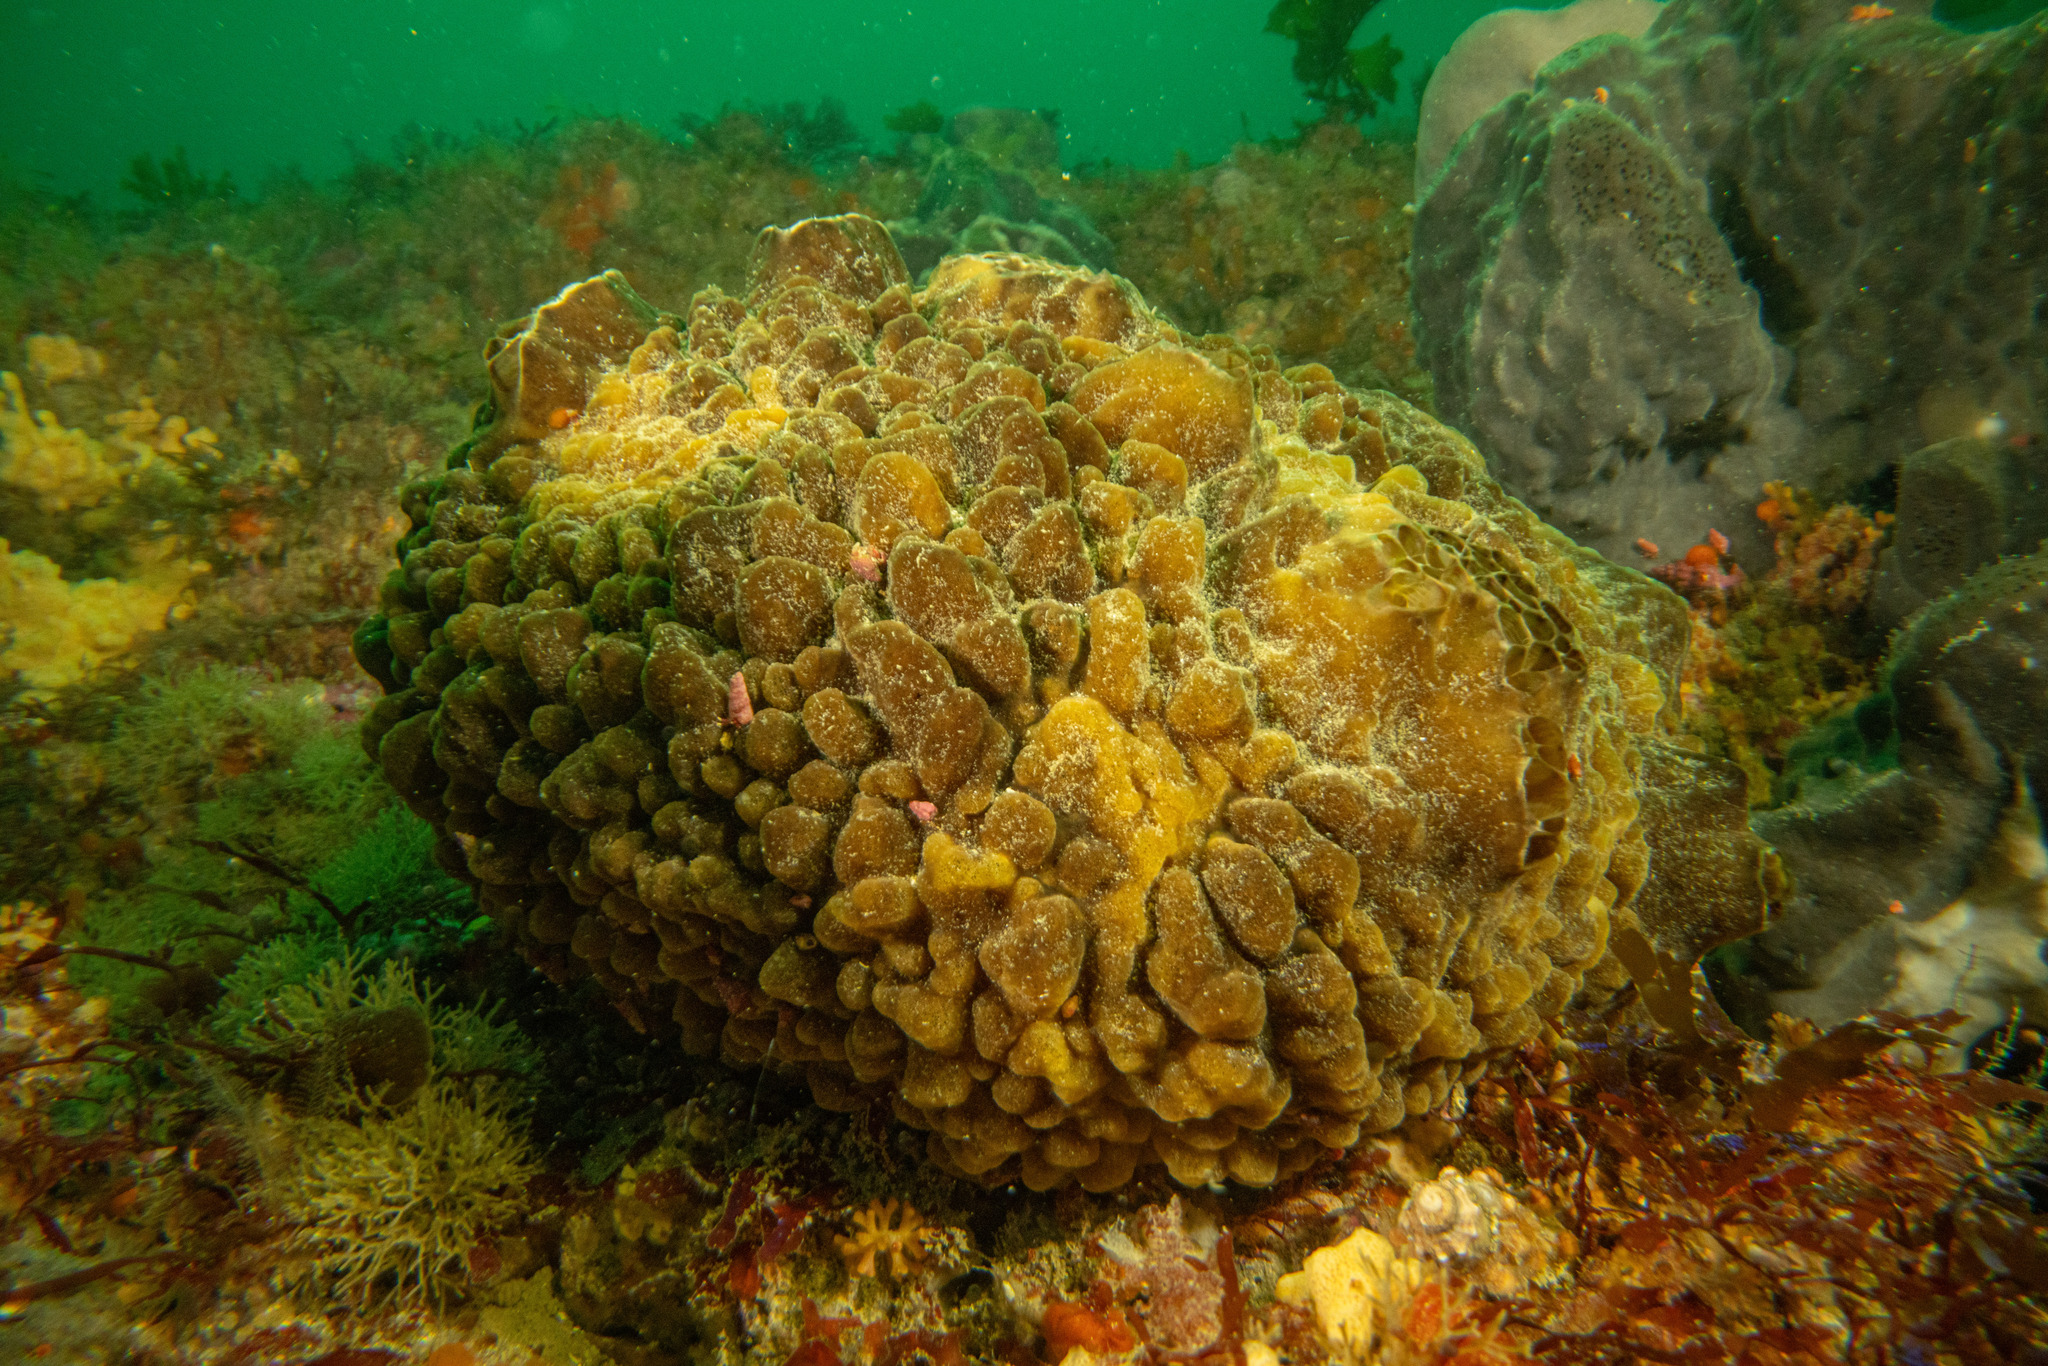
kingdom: Animalia
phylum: Porifera
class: Demospongiae
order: Polymastiida
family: Polymastiidae
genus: Polymastia
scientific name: Polymastia massalis
